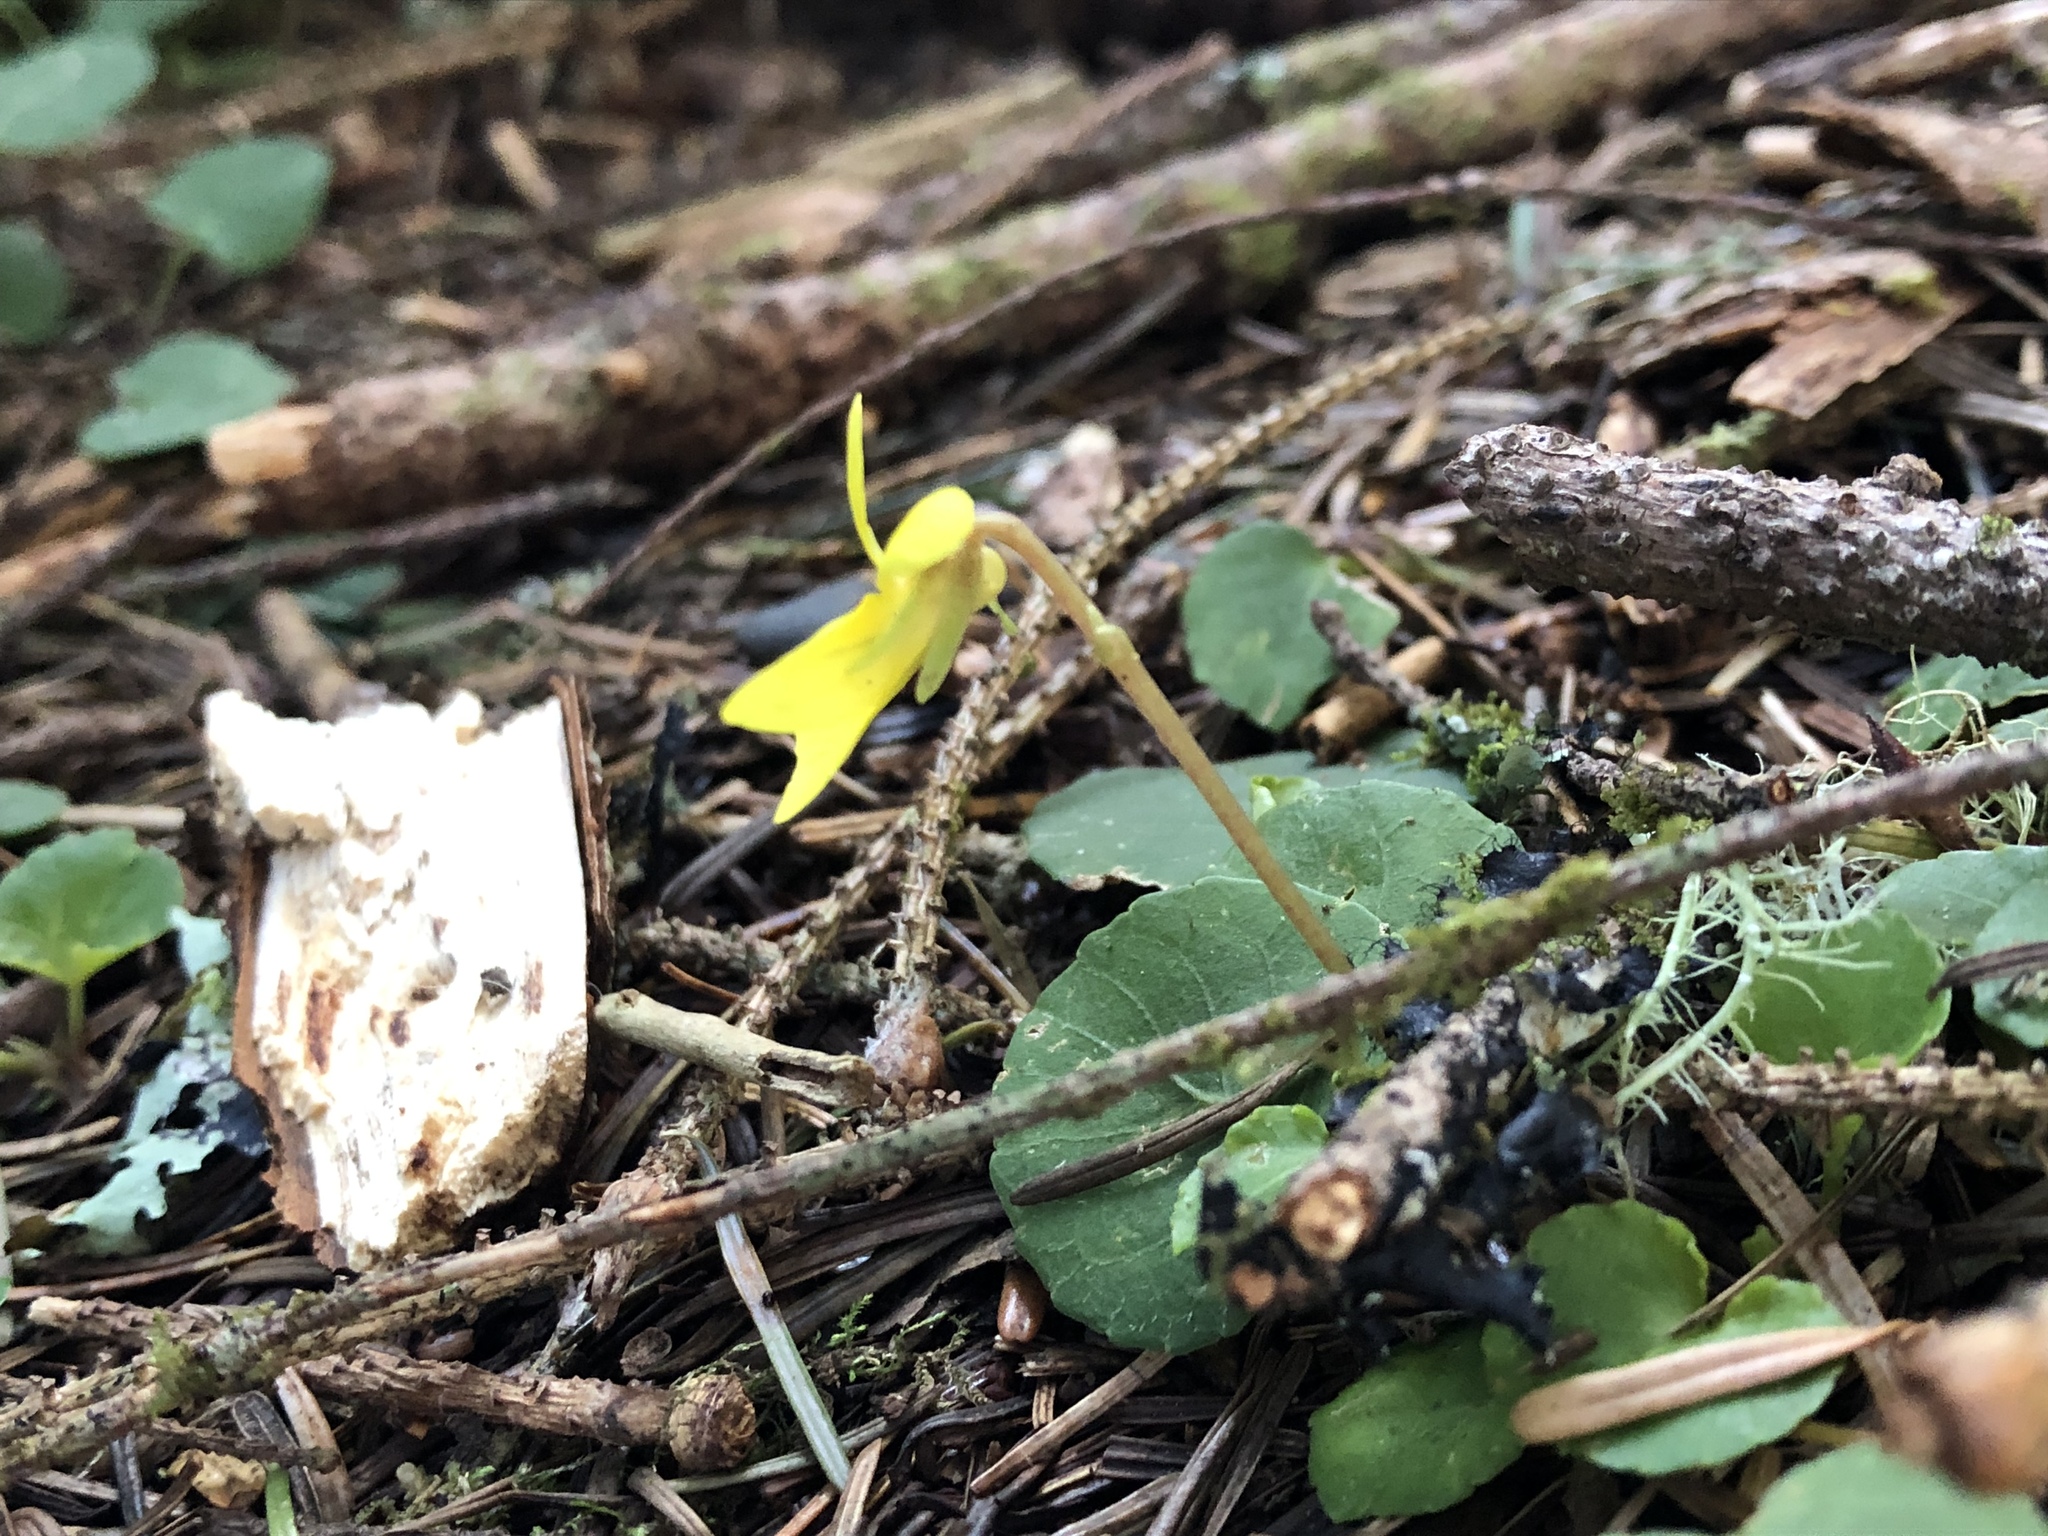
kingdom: Plantae
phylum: Tracheophyta
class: Magnoliopsida
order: Malpighiales
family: Violaceae
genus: Viola
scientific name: Viola sempervirens
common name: Evergreen violet
